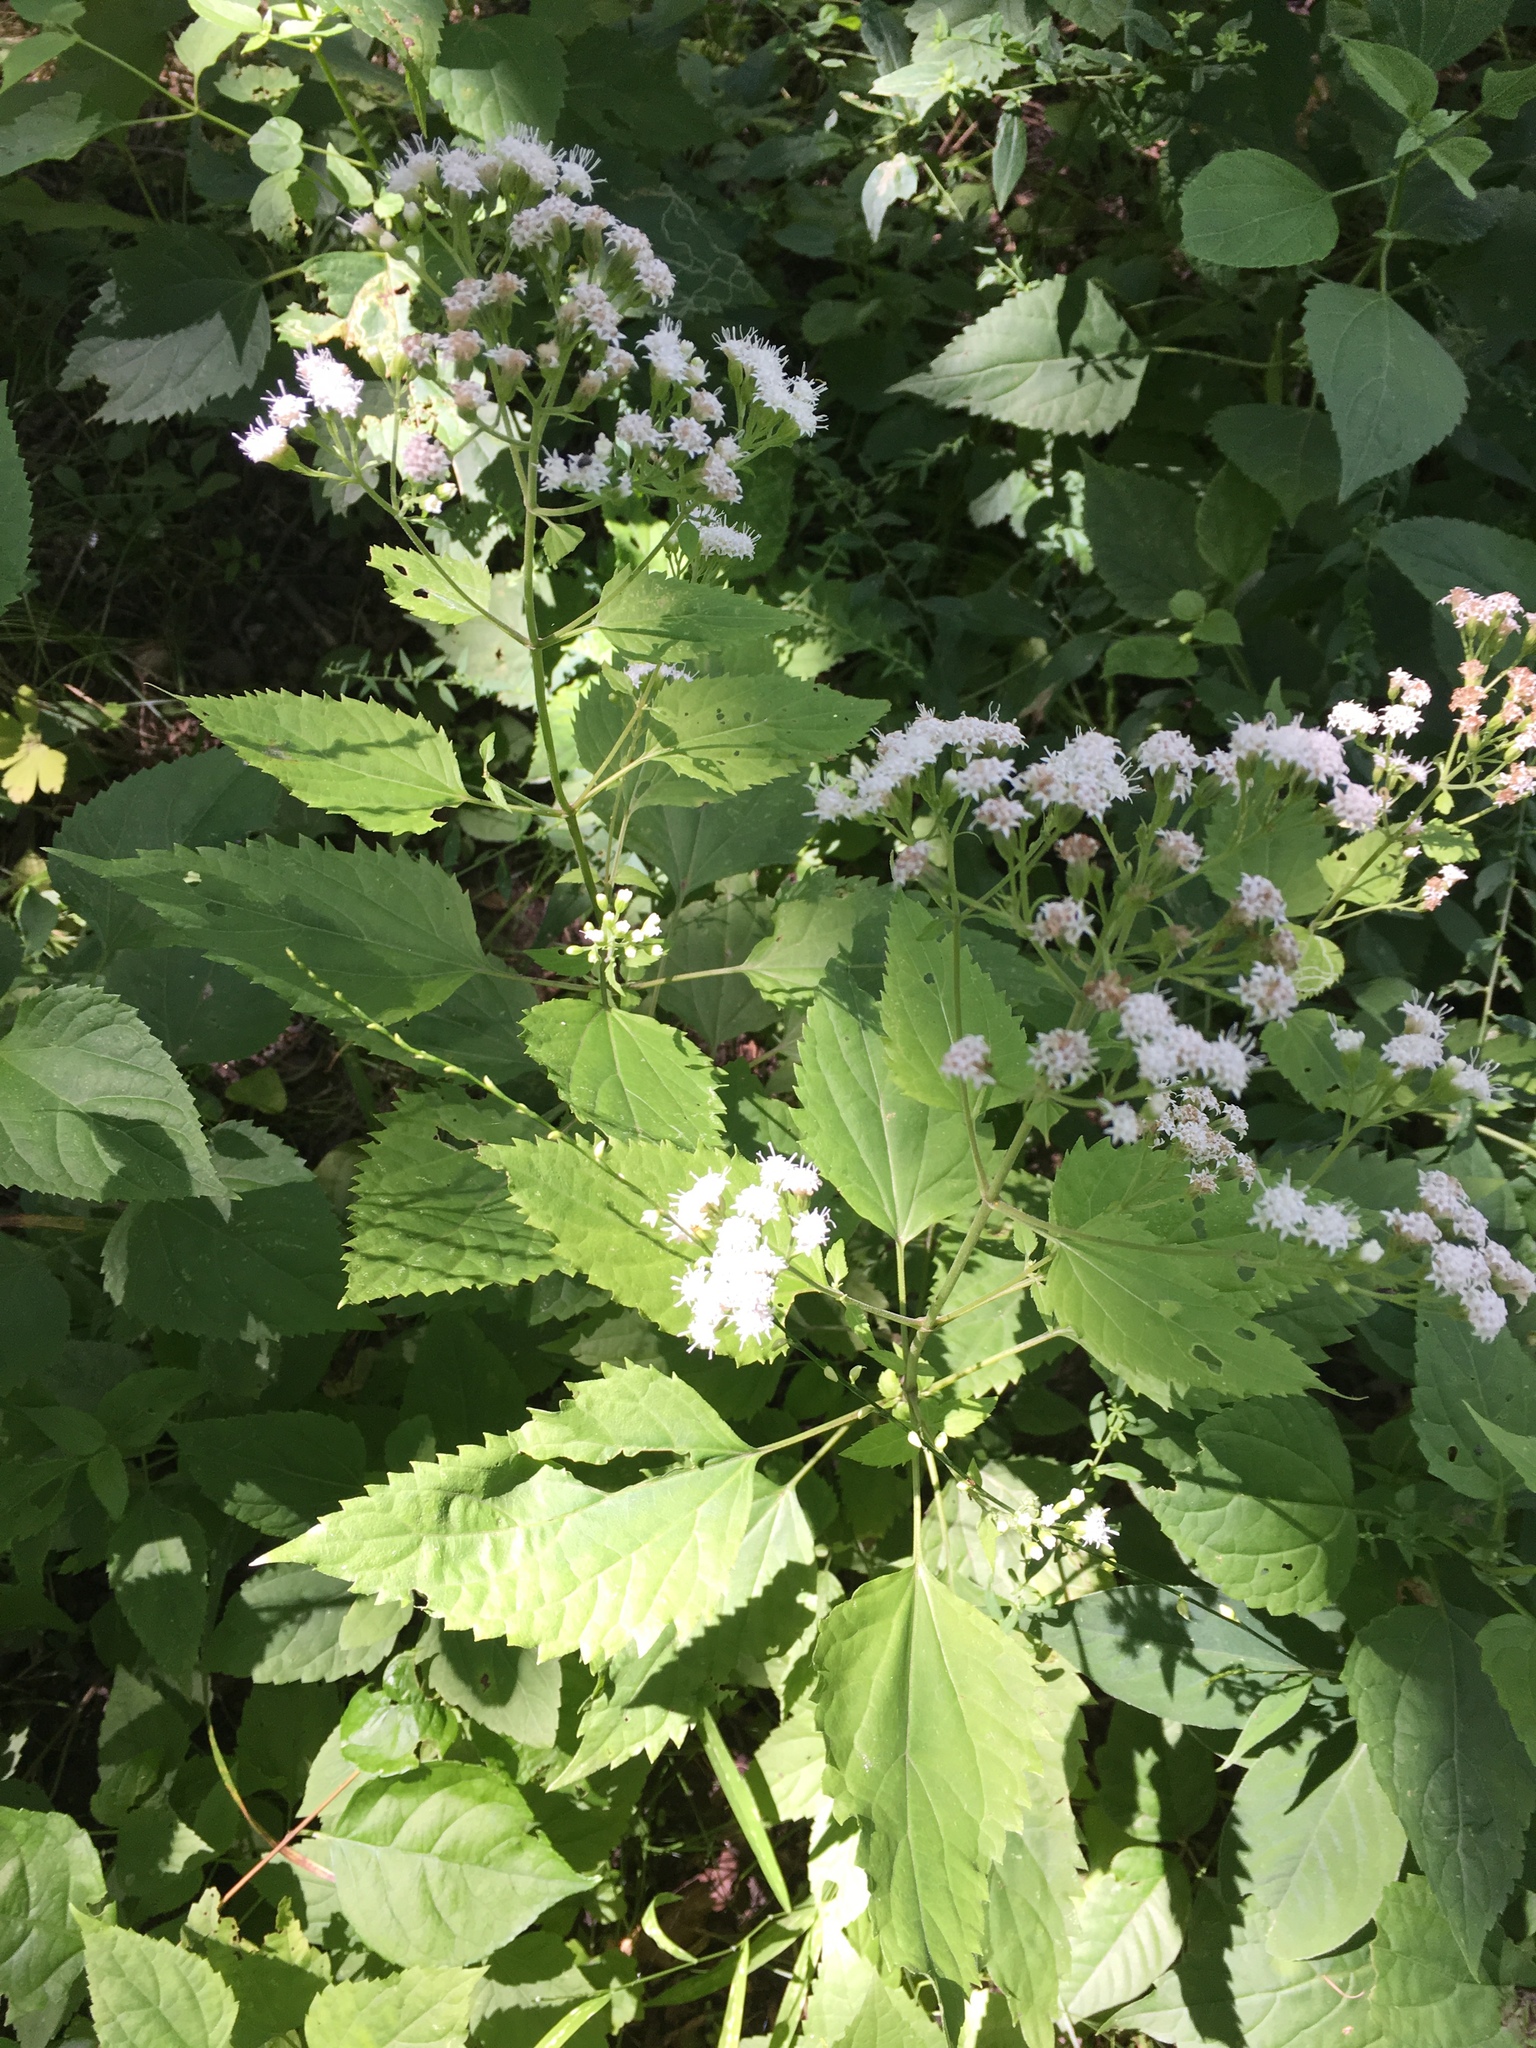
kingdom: Plantae
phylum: Tracheophyta
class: Magnoliopsida
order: Asterales
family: Asteraceae
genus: Ageratina
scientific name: Ageratina altissima
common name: White snakeroot
